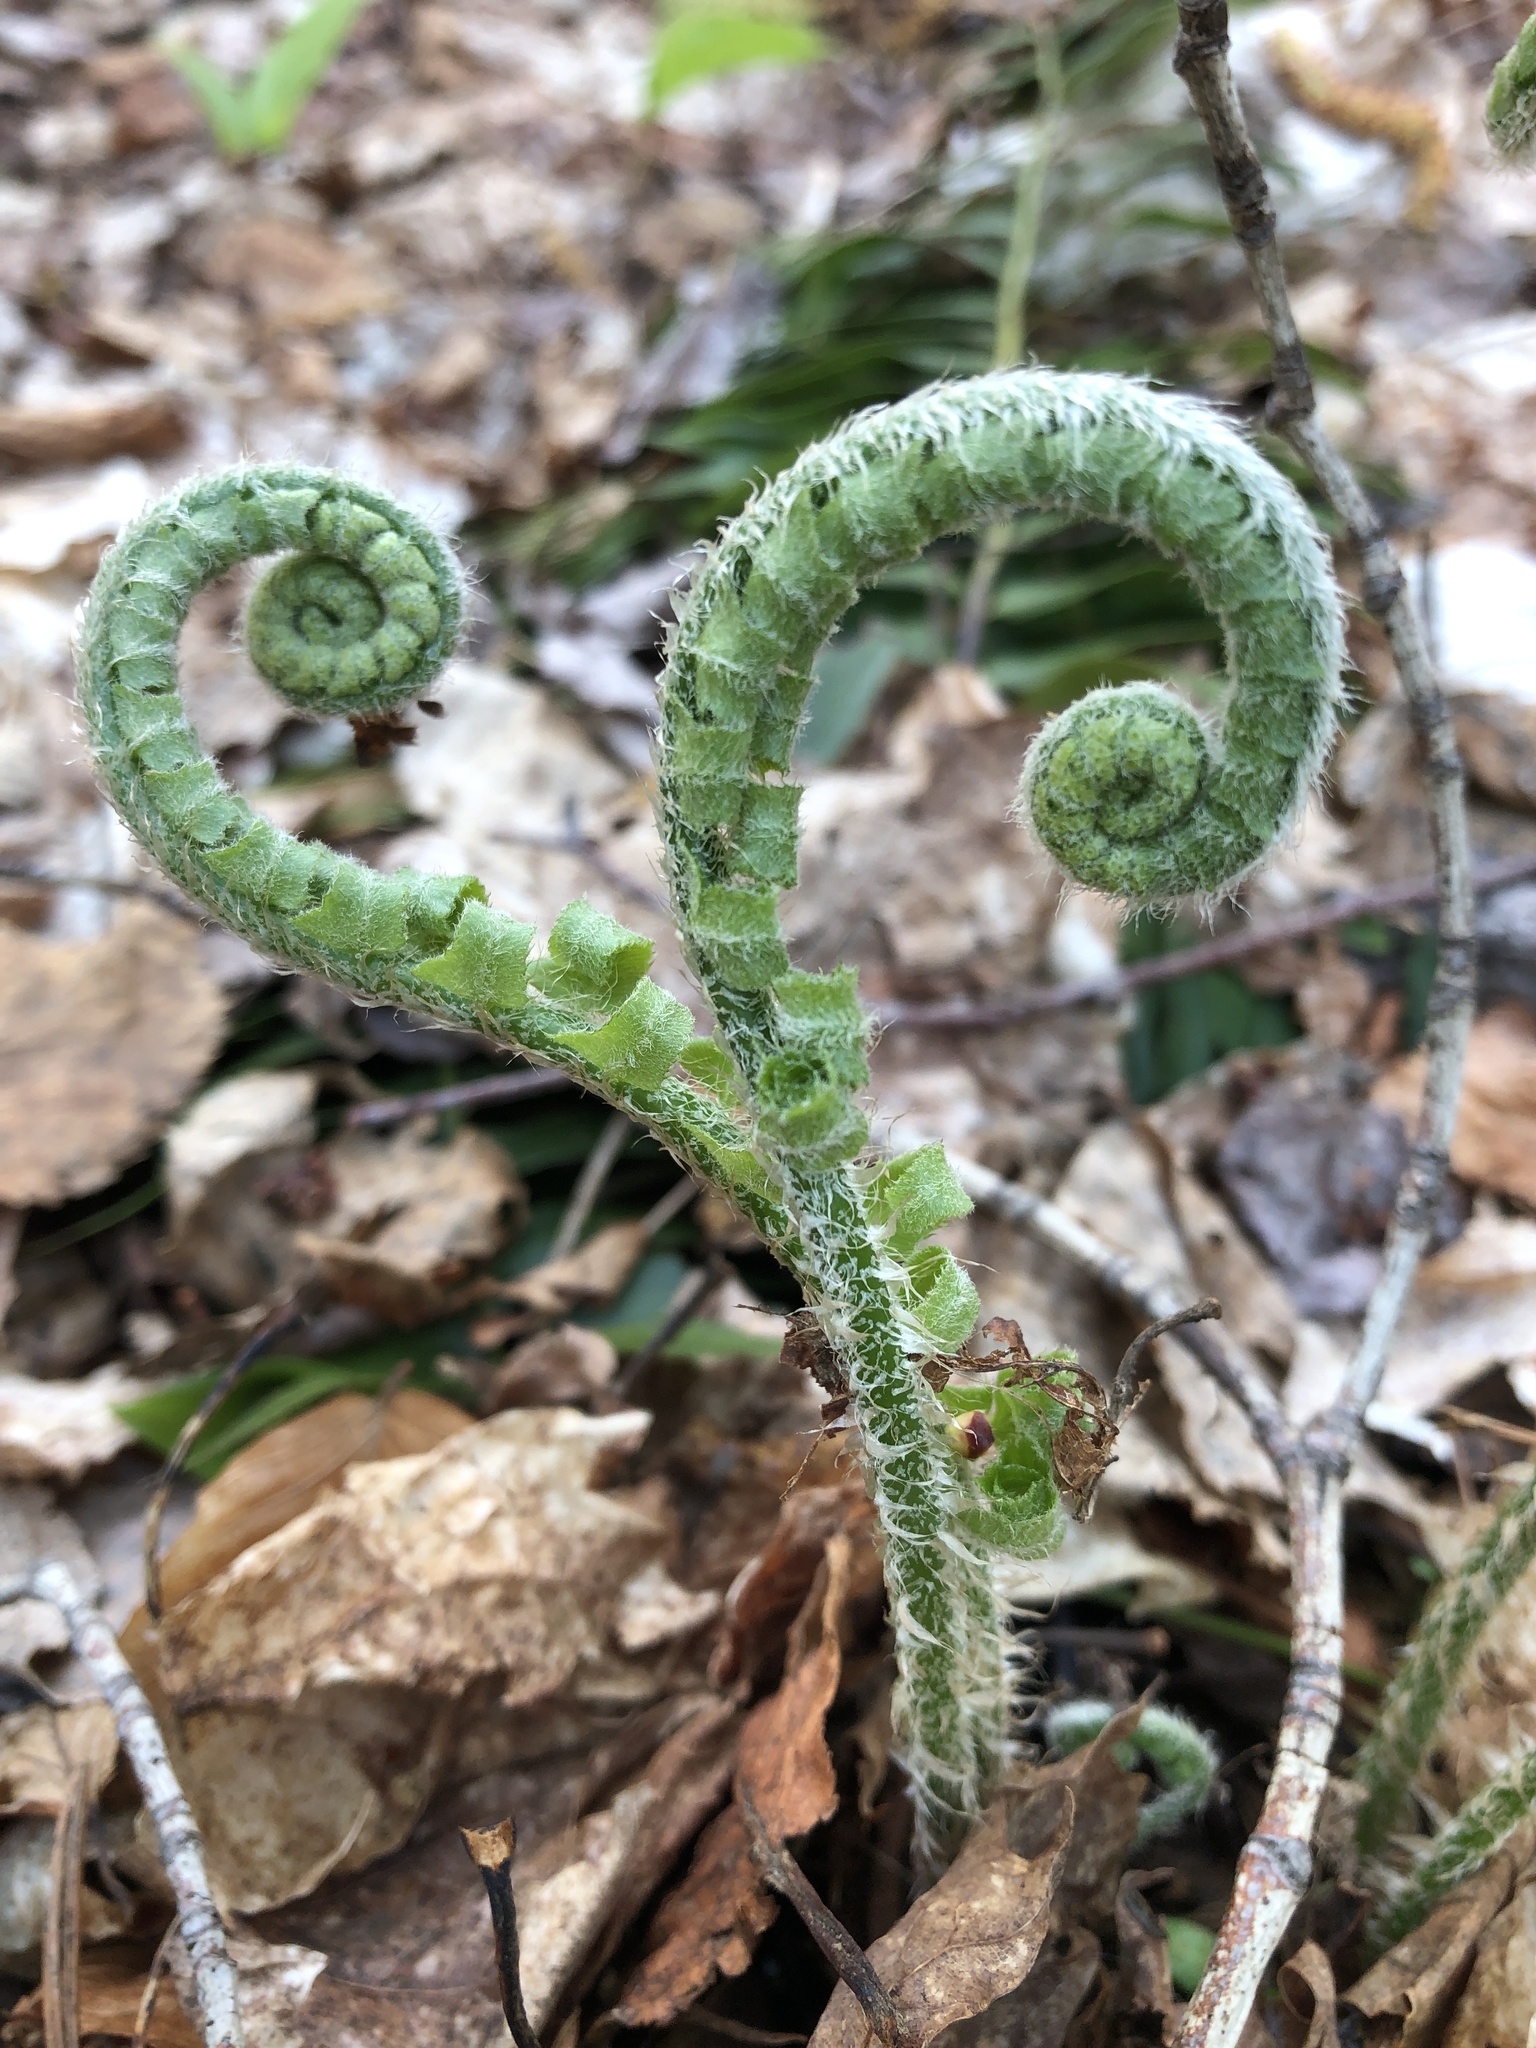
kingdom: Plantae
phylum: Tracheophyta
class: Polypodiopsida
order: Polypodiales
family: Dryopteridaceae
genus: Polystichum
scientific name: Polystichum acrostichoides
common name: Christmas fern
